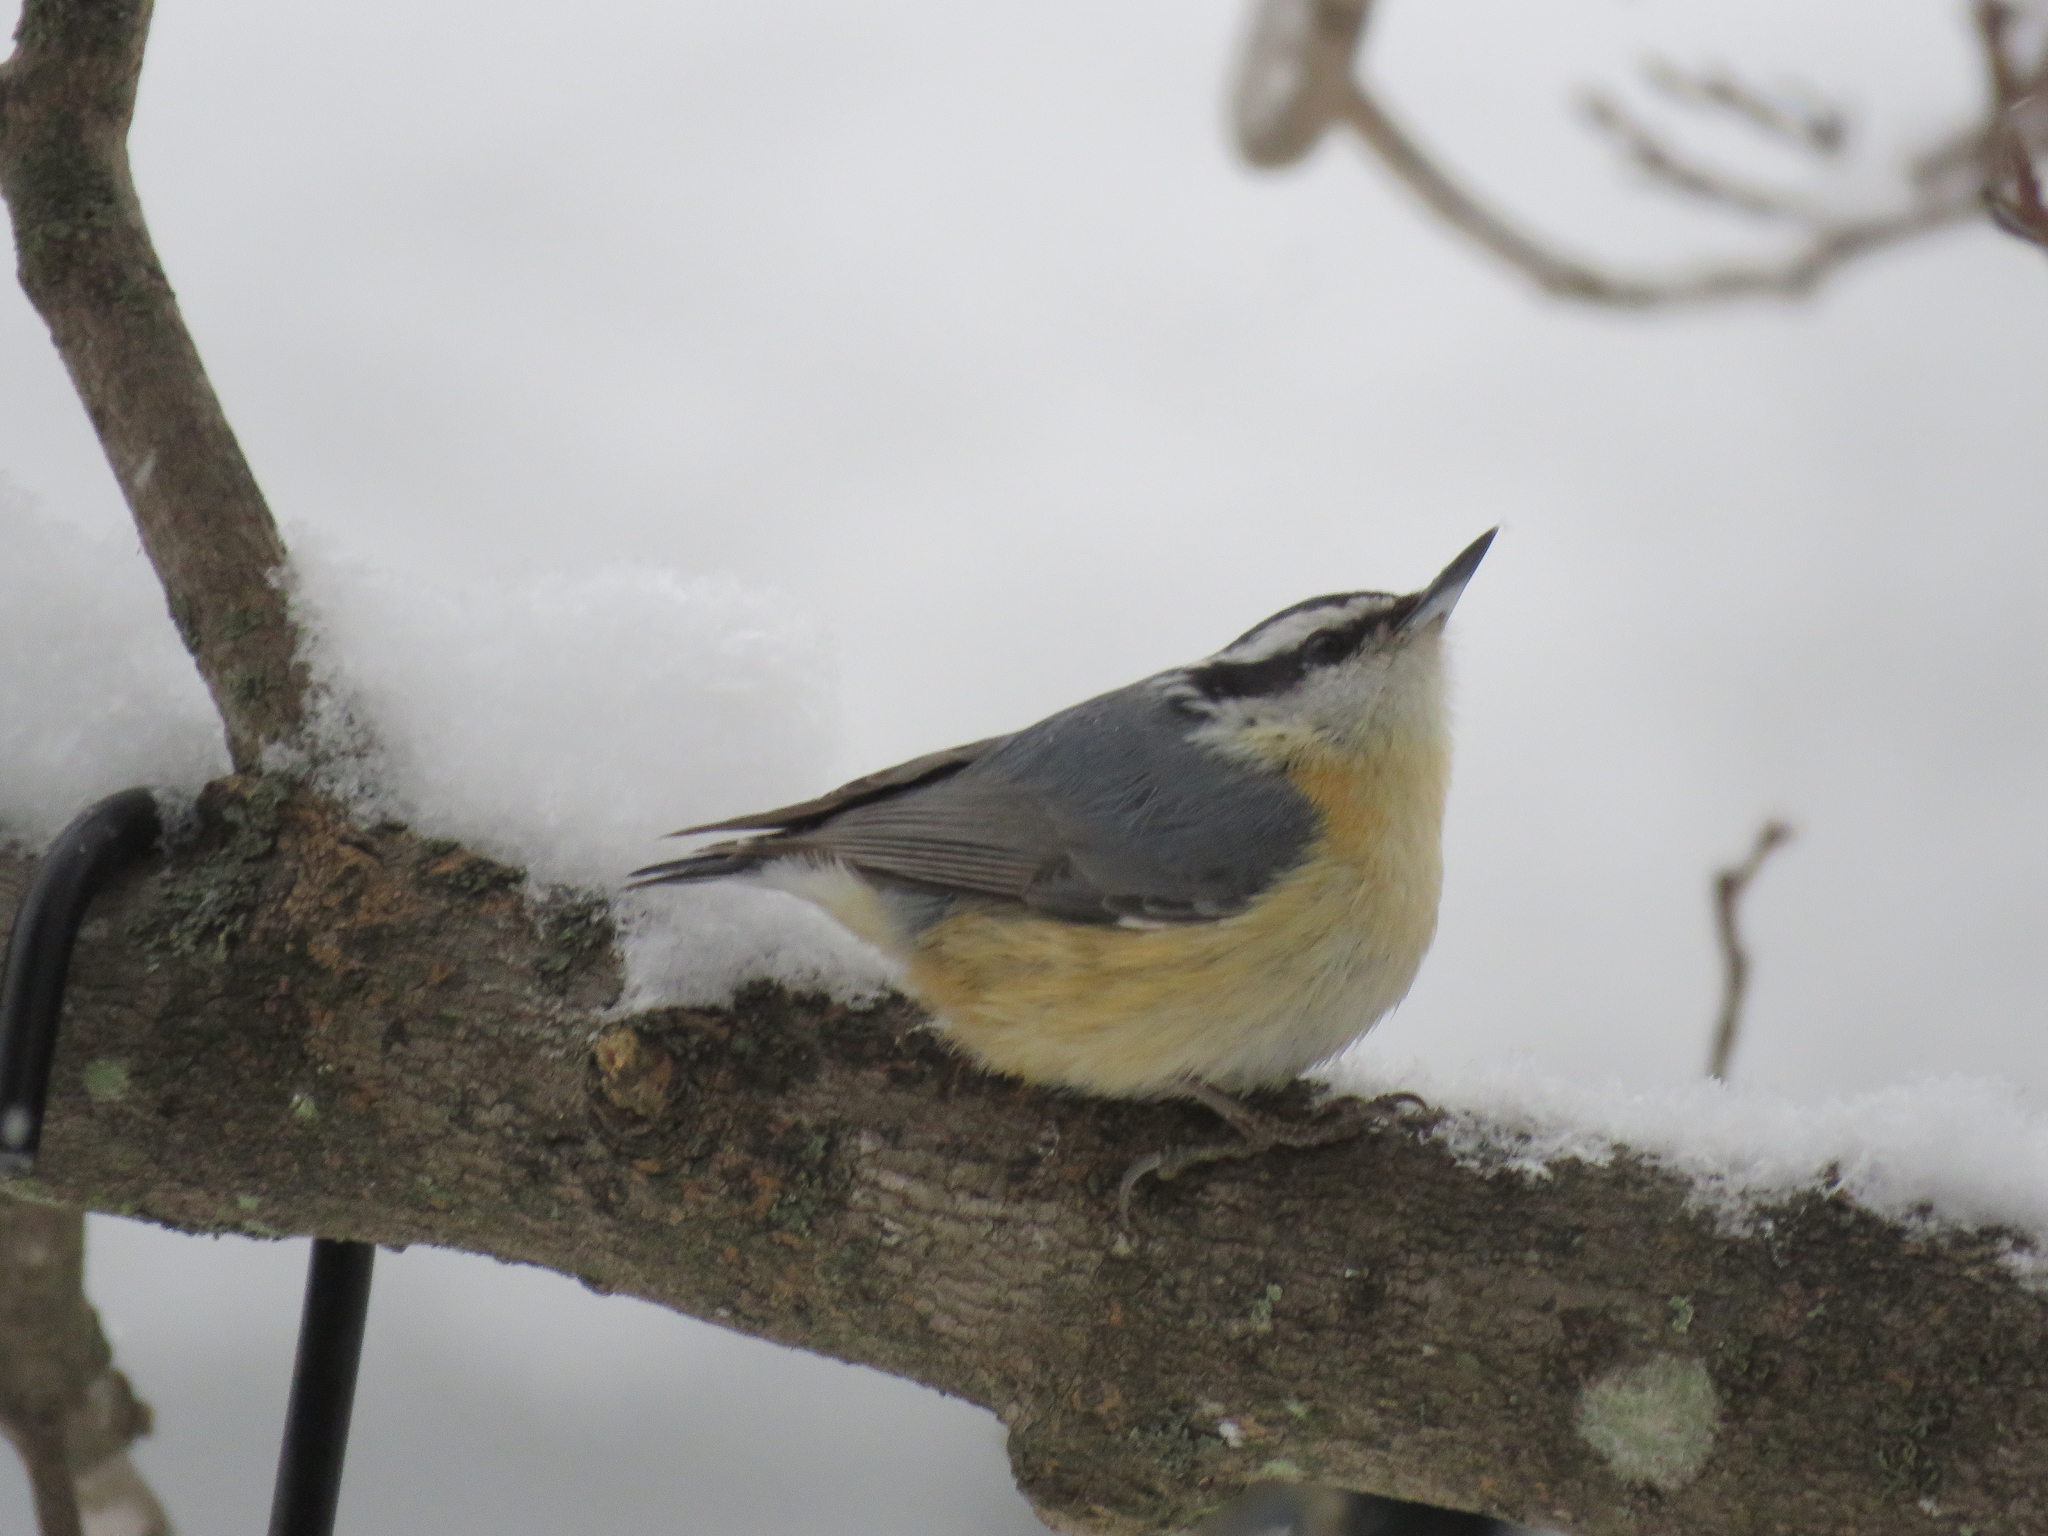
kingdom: Animalia
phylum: Chordata
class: Aves
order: Passeriformes
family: Sittidae
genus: Sitta
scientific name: Sitta canadensis
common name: Red-breasted nuthatch
